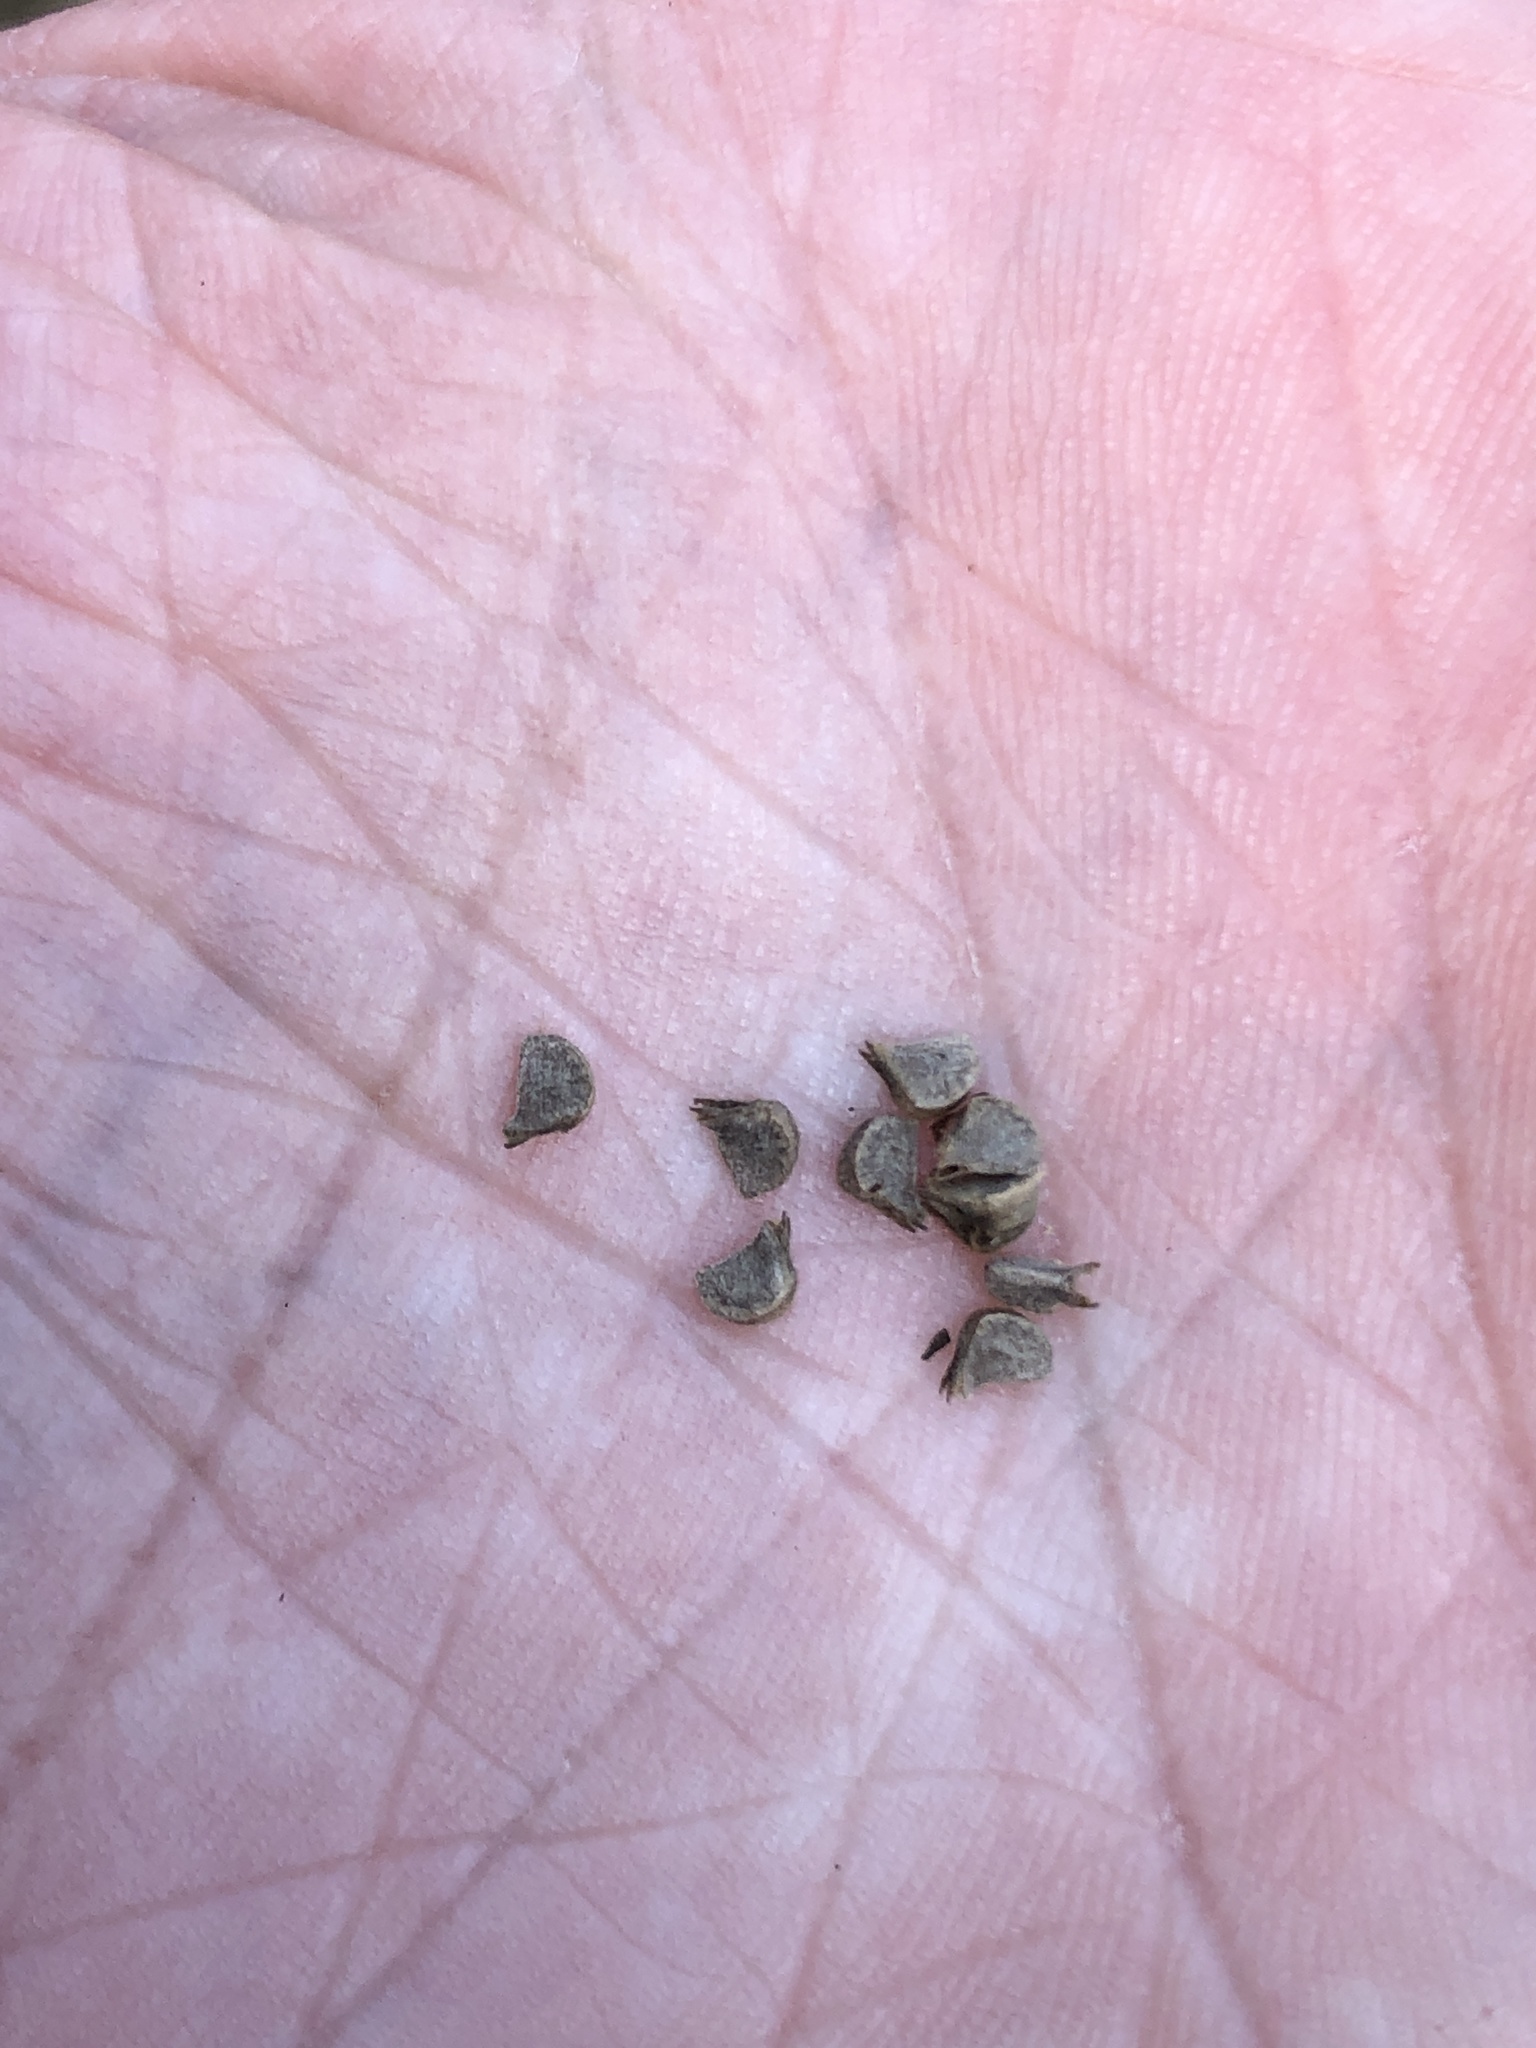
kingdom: Plantae
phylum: Tracheophyta
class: Magnoliopsida
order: Malvales
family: Malvaceae
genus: Sida
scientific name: Sida rhombifolia
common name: Queensland-hemp
